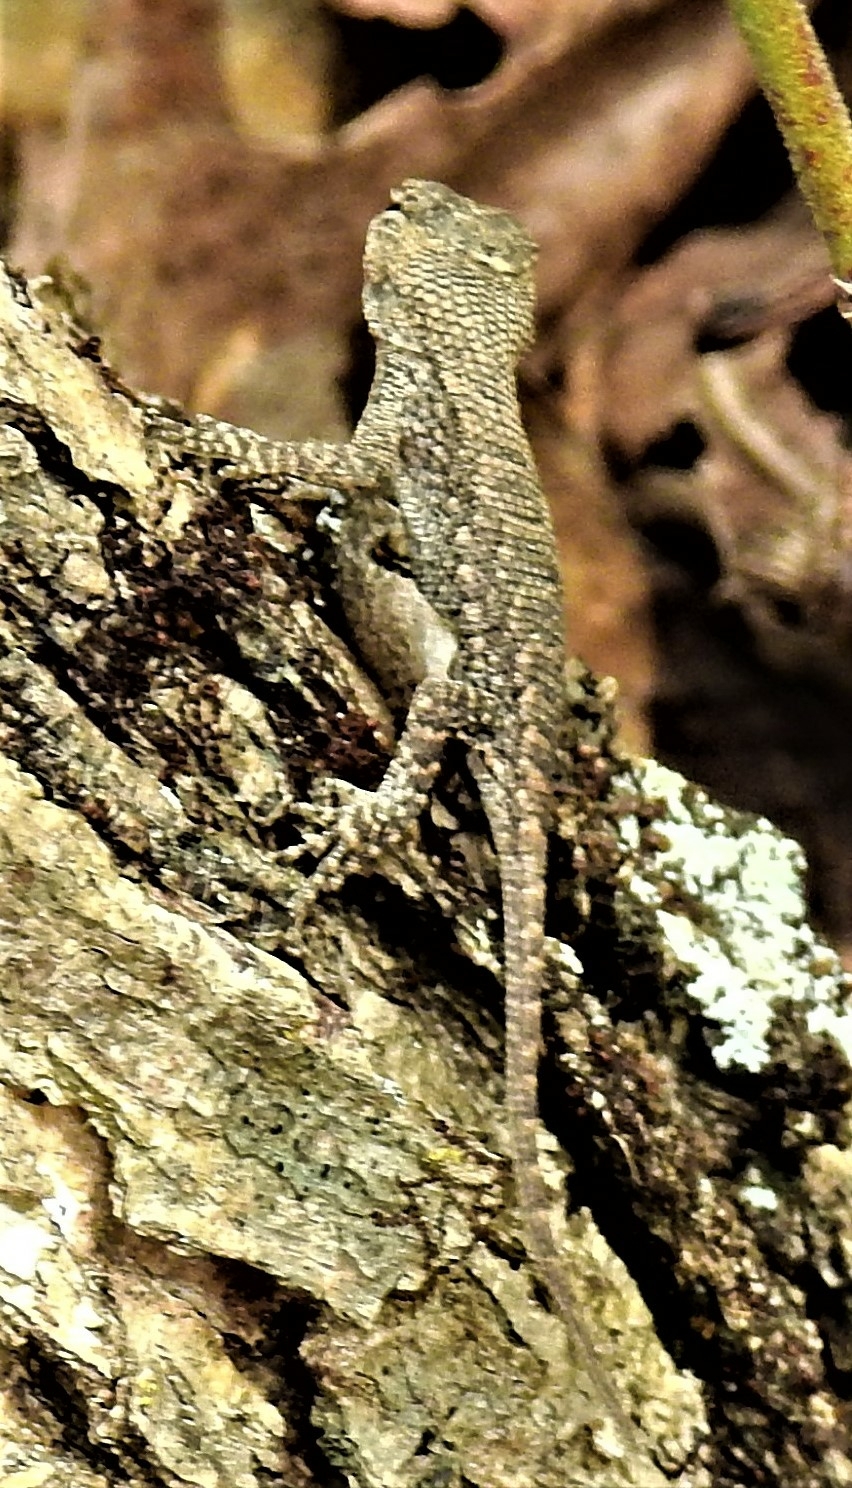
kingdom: Animalia
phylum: Chordata
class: Squamata
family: Phrynosomatidae
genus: Sceloporus
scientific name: Sceloporus consobrinus
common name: Southern prairie lizard
